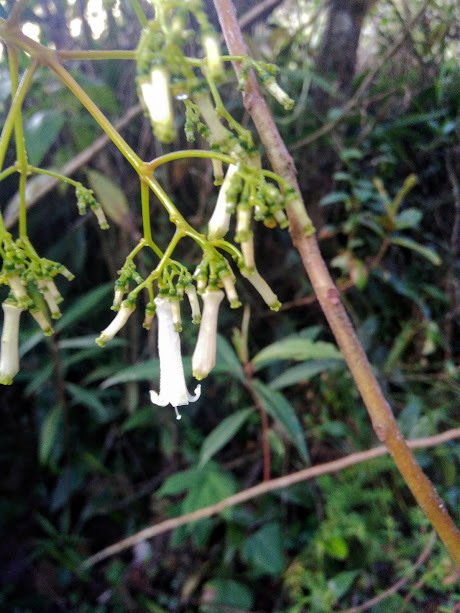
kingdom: Plantae
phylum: Tracheophyta
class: Magnoliopsida
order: Gentianales
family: Rubiaceae
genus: Palicourea
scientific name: Palicourea lineariflora
